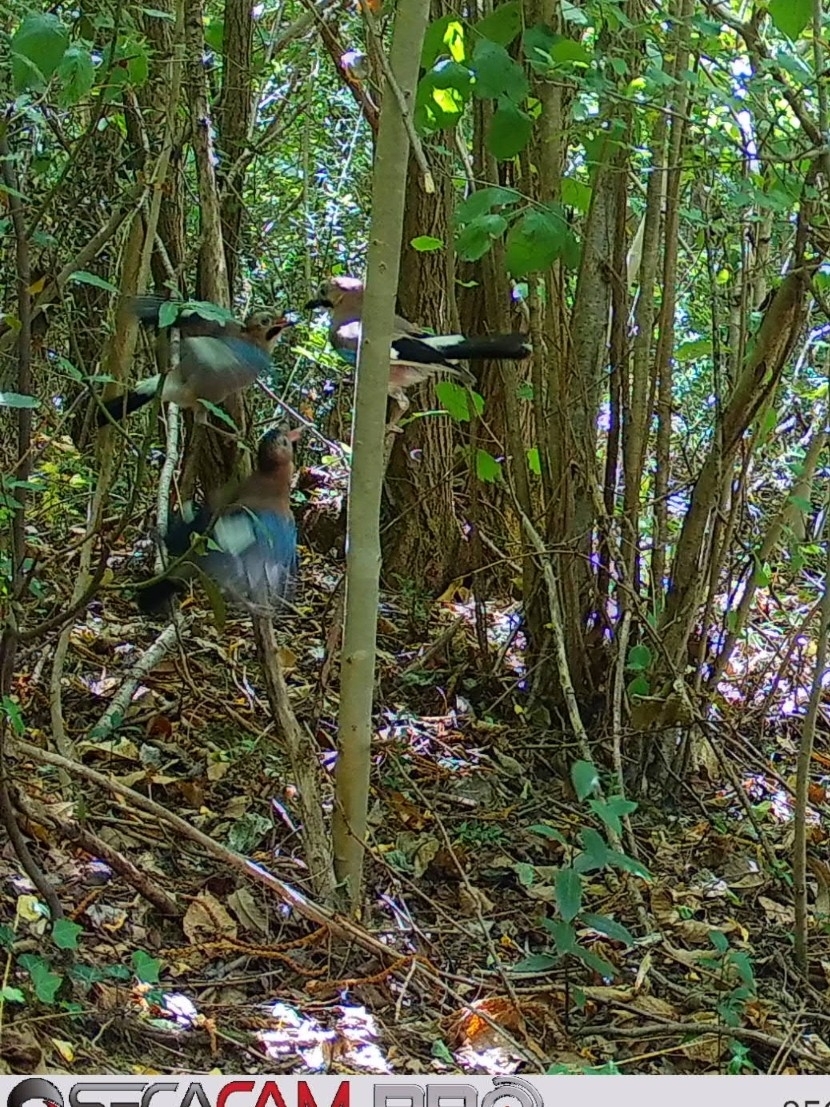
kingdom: Animalia
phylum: Chordata
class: Aves
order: Passeriformes
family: Corvidae
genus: Garrulus
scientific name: Garrulus glandarius
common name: Eurasian jay
